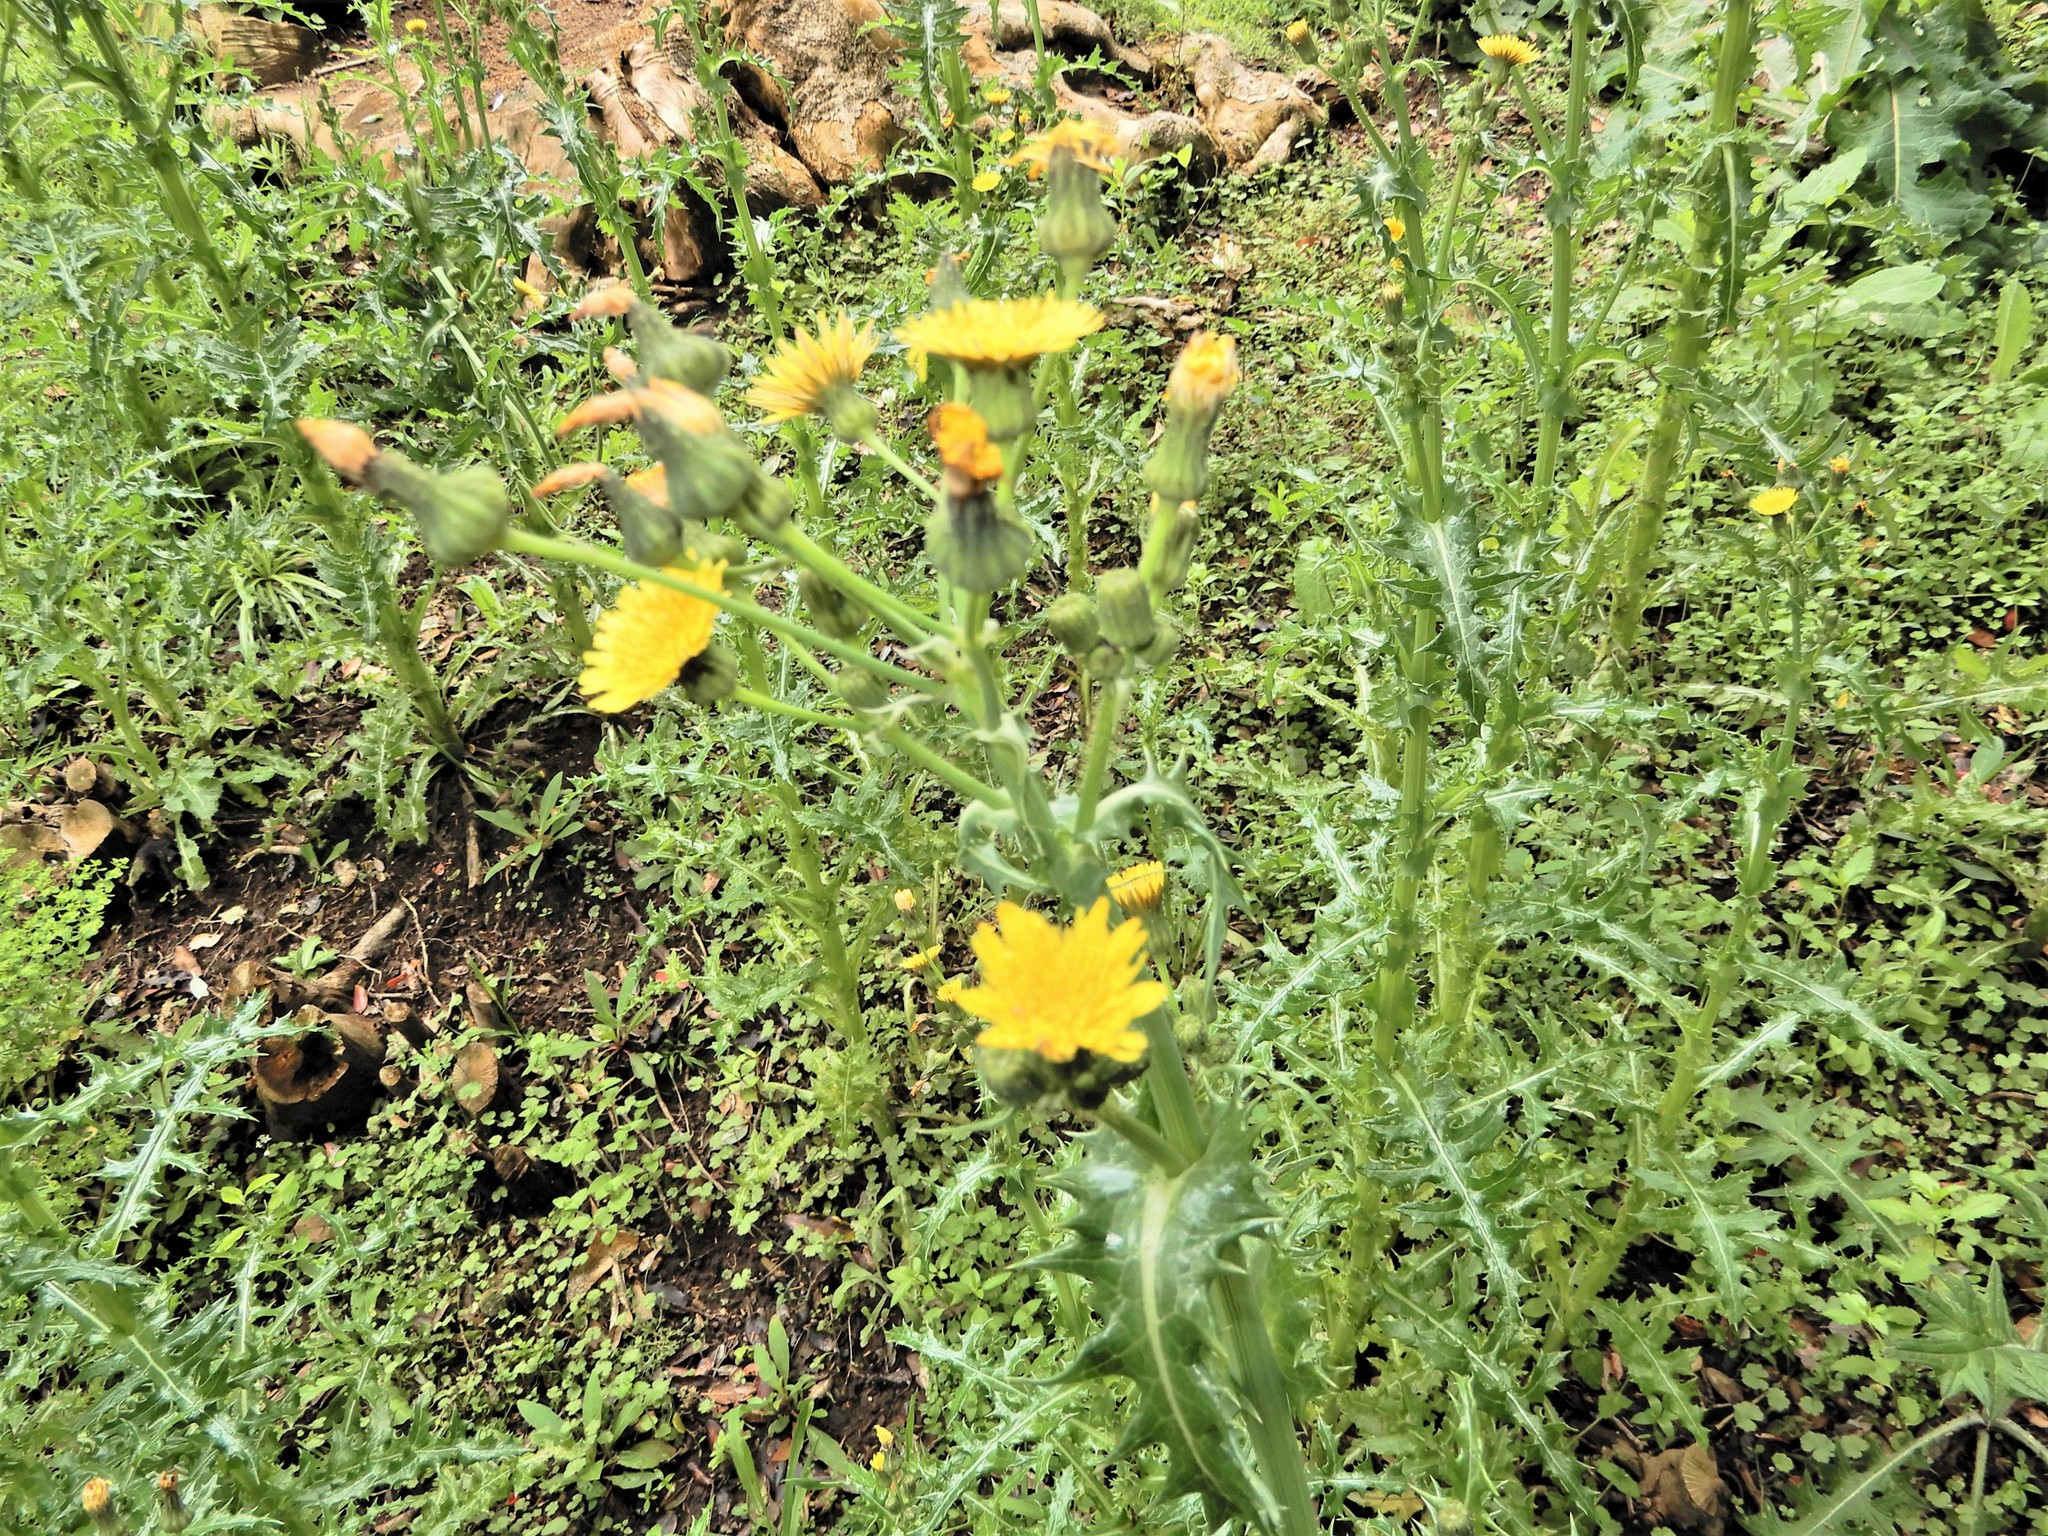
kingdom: Plantae
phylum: Tracheophyta
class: Magnoliopsida
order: Asterales
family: Asteraceae
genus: Sonchus
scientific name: Sonchus asper
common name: Prickly sow-thistle
